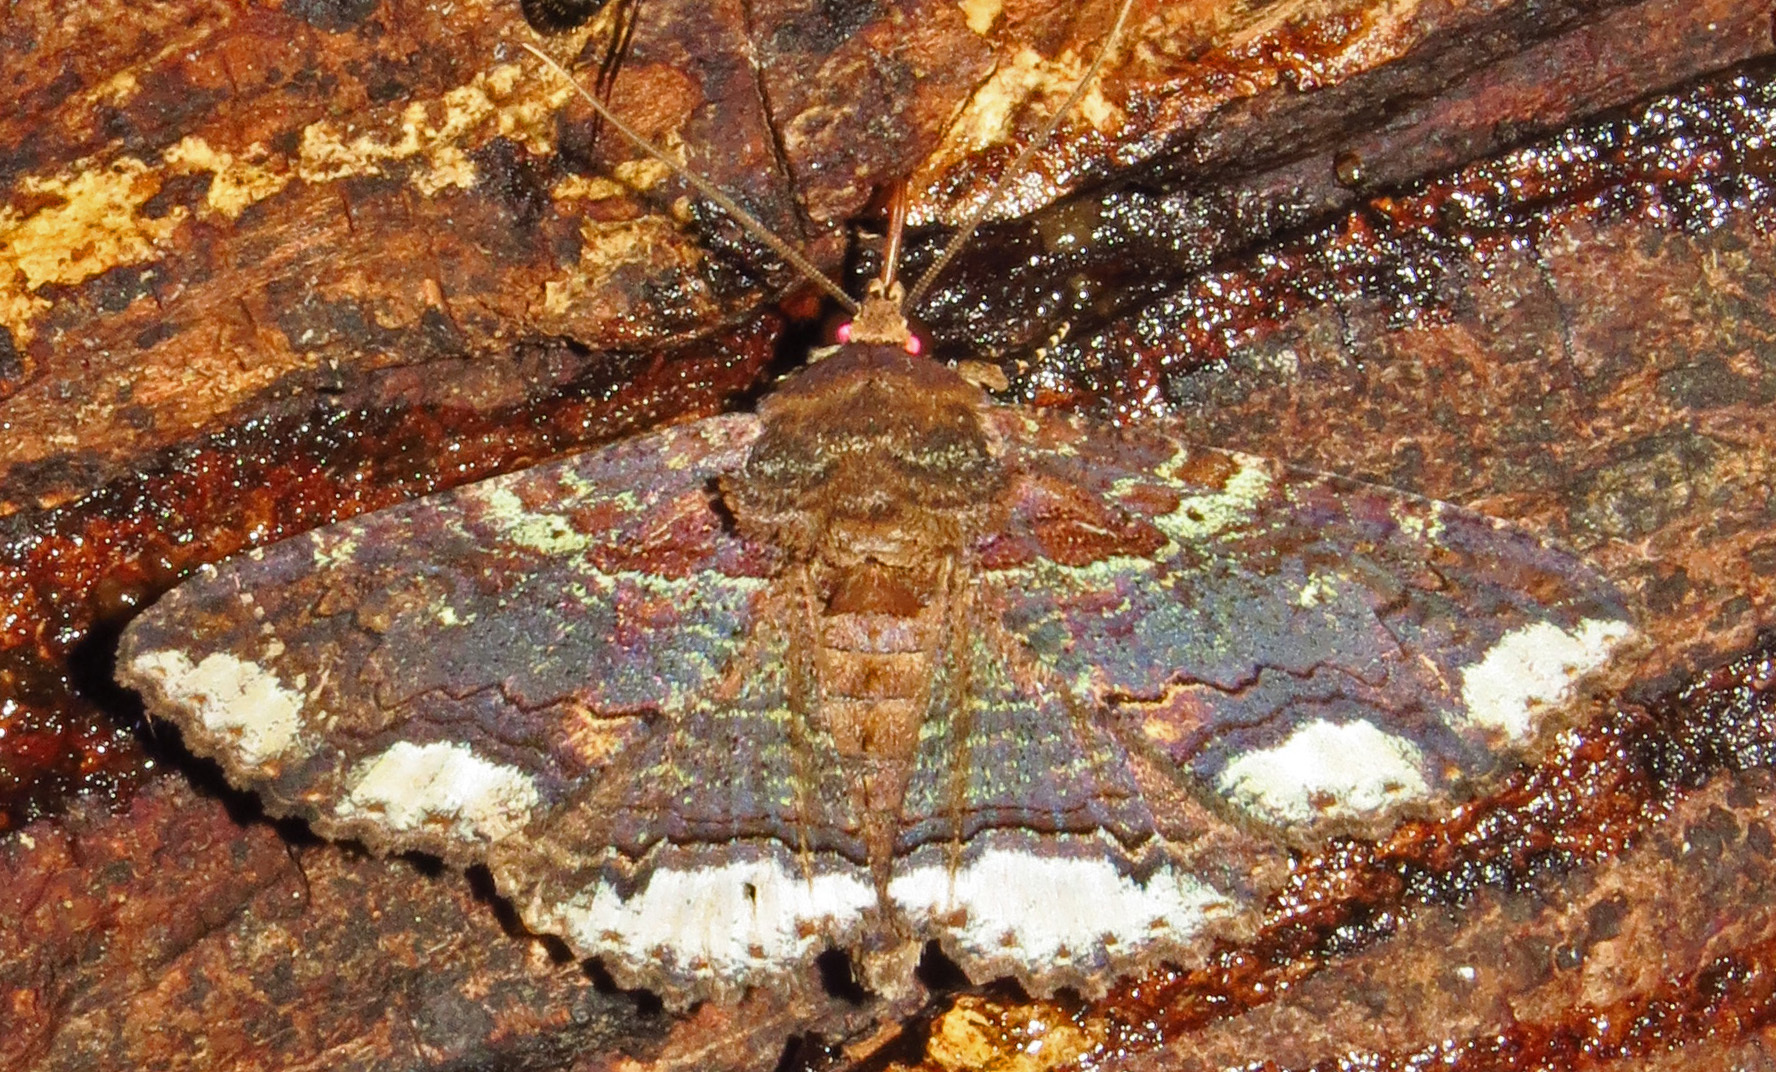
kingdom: Animalia
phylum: Arthropoda
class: Insecta
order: Lepidoptera
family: Erebidae
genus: Zale
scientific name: Zale lunata
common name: Lunate zale moth
